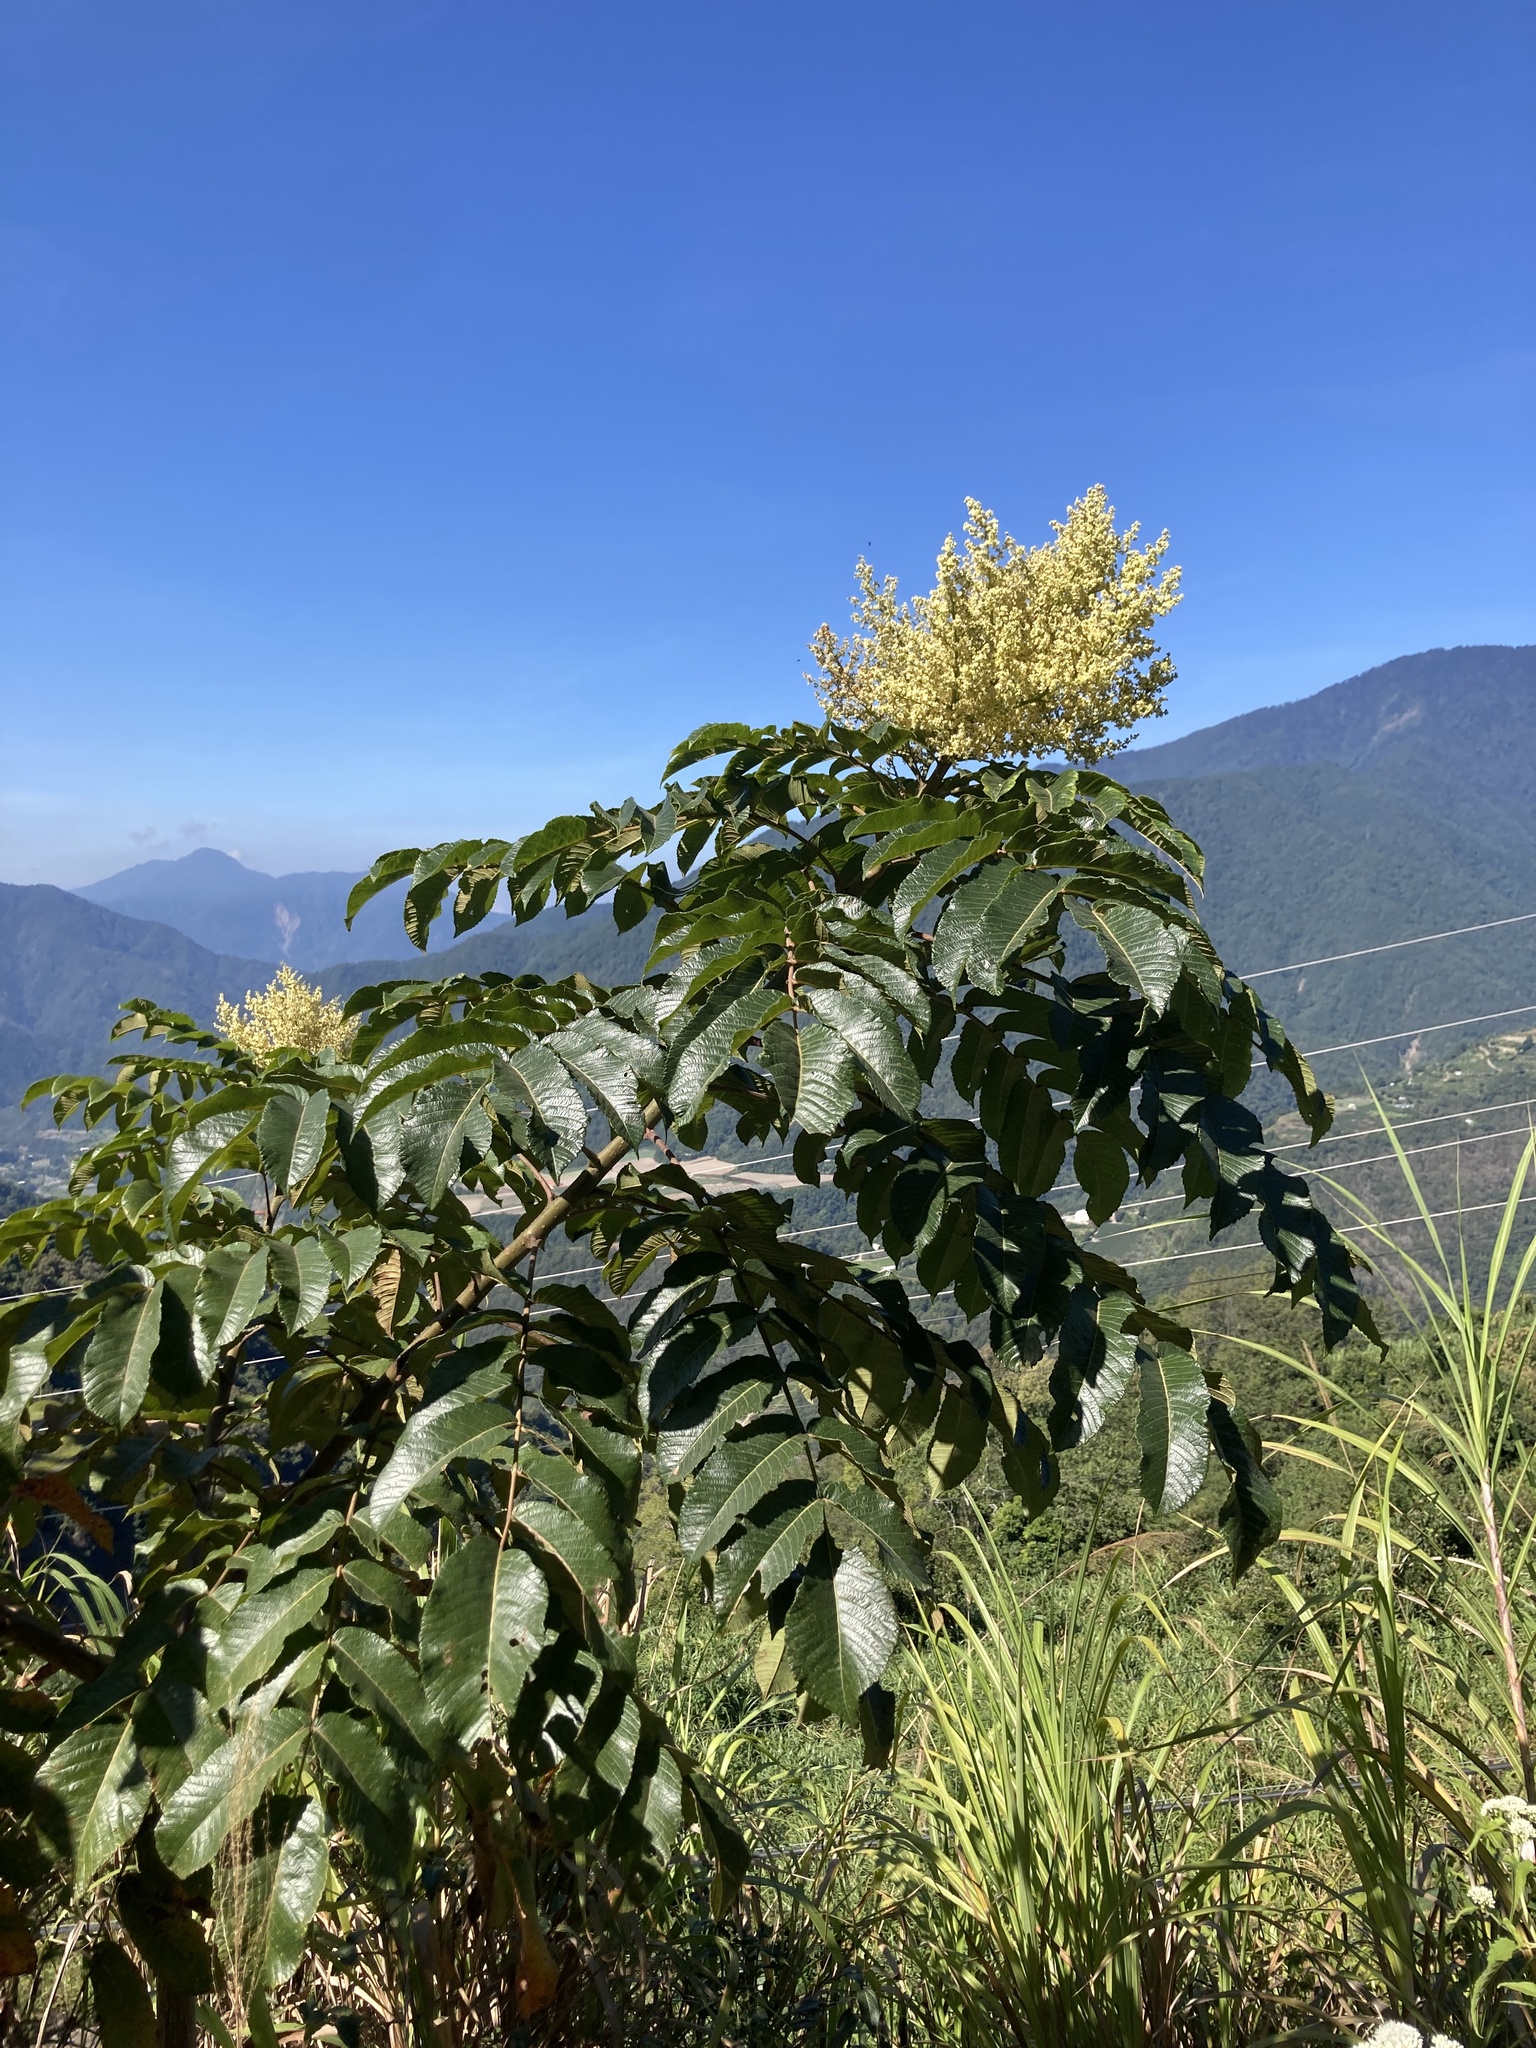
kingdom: Plantae
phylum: Tracheophyta
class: Magnoliopsida
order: Sapindales
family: Anacardiaceae
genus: Rhus
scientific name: Rhus chinensis
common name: Chinese gall
